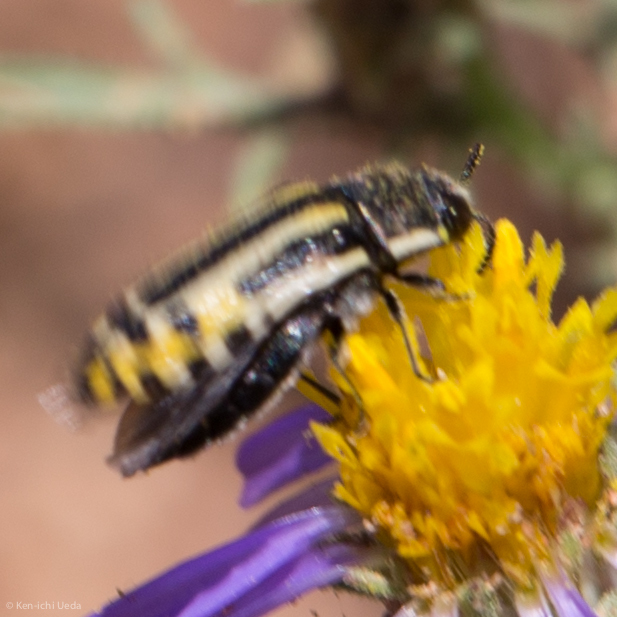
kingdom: Animalia
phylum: Arthropoda
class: Insecta
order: Coleoptera
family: Buprestidae
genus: Acmaeodera
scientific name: Acmaeodera scalaris
